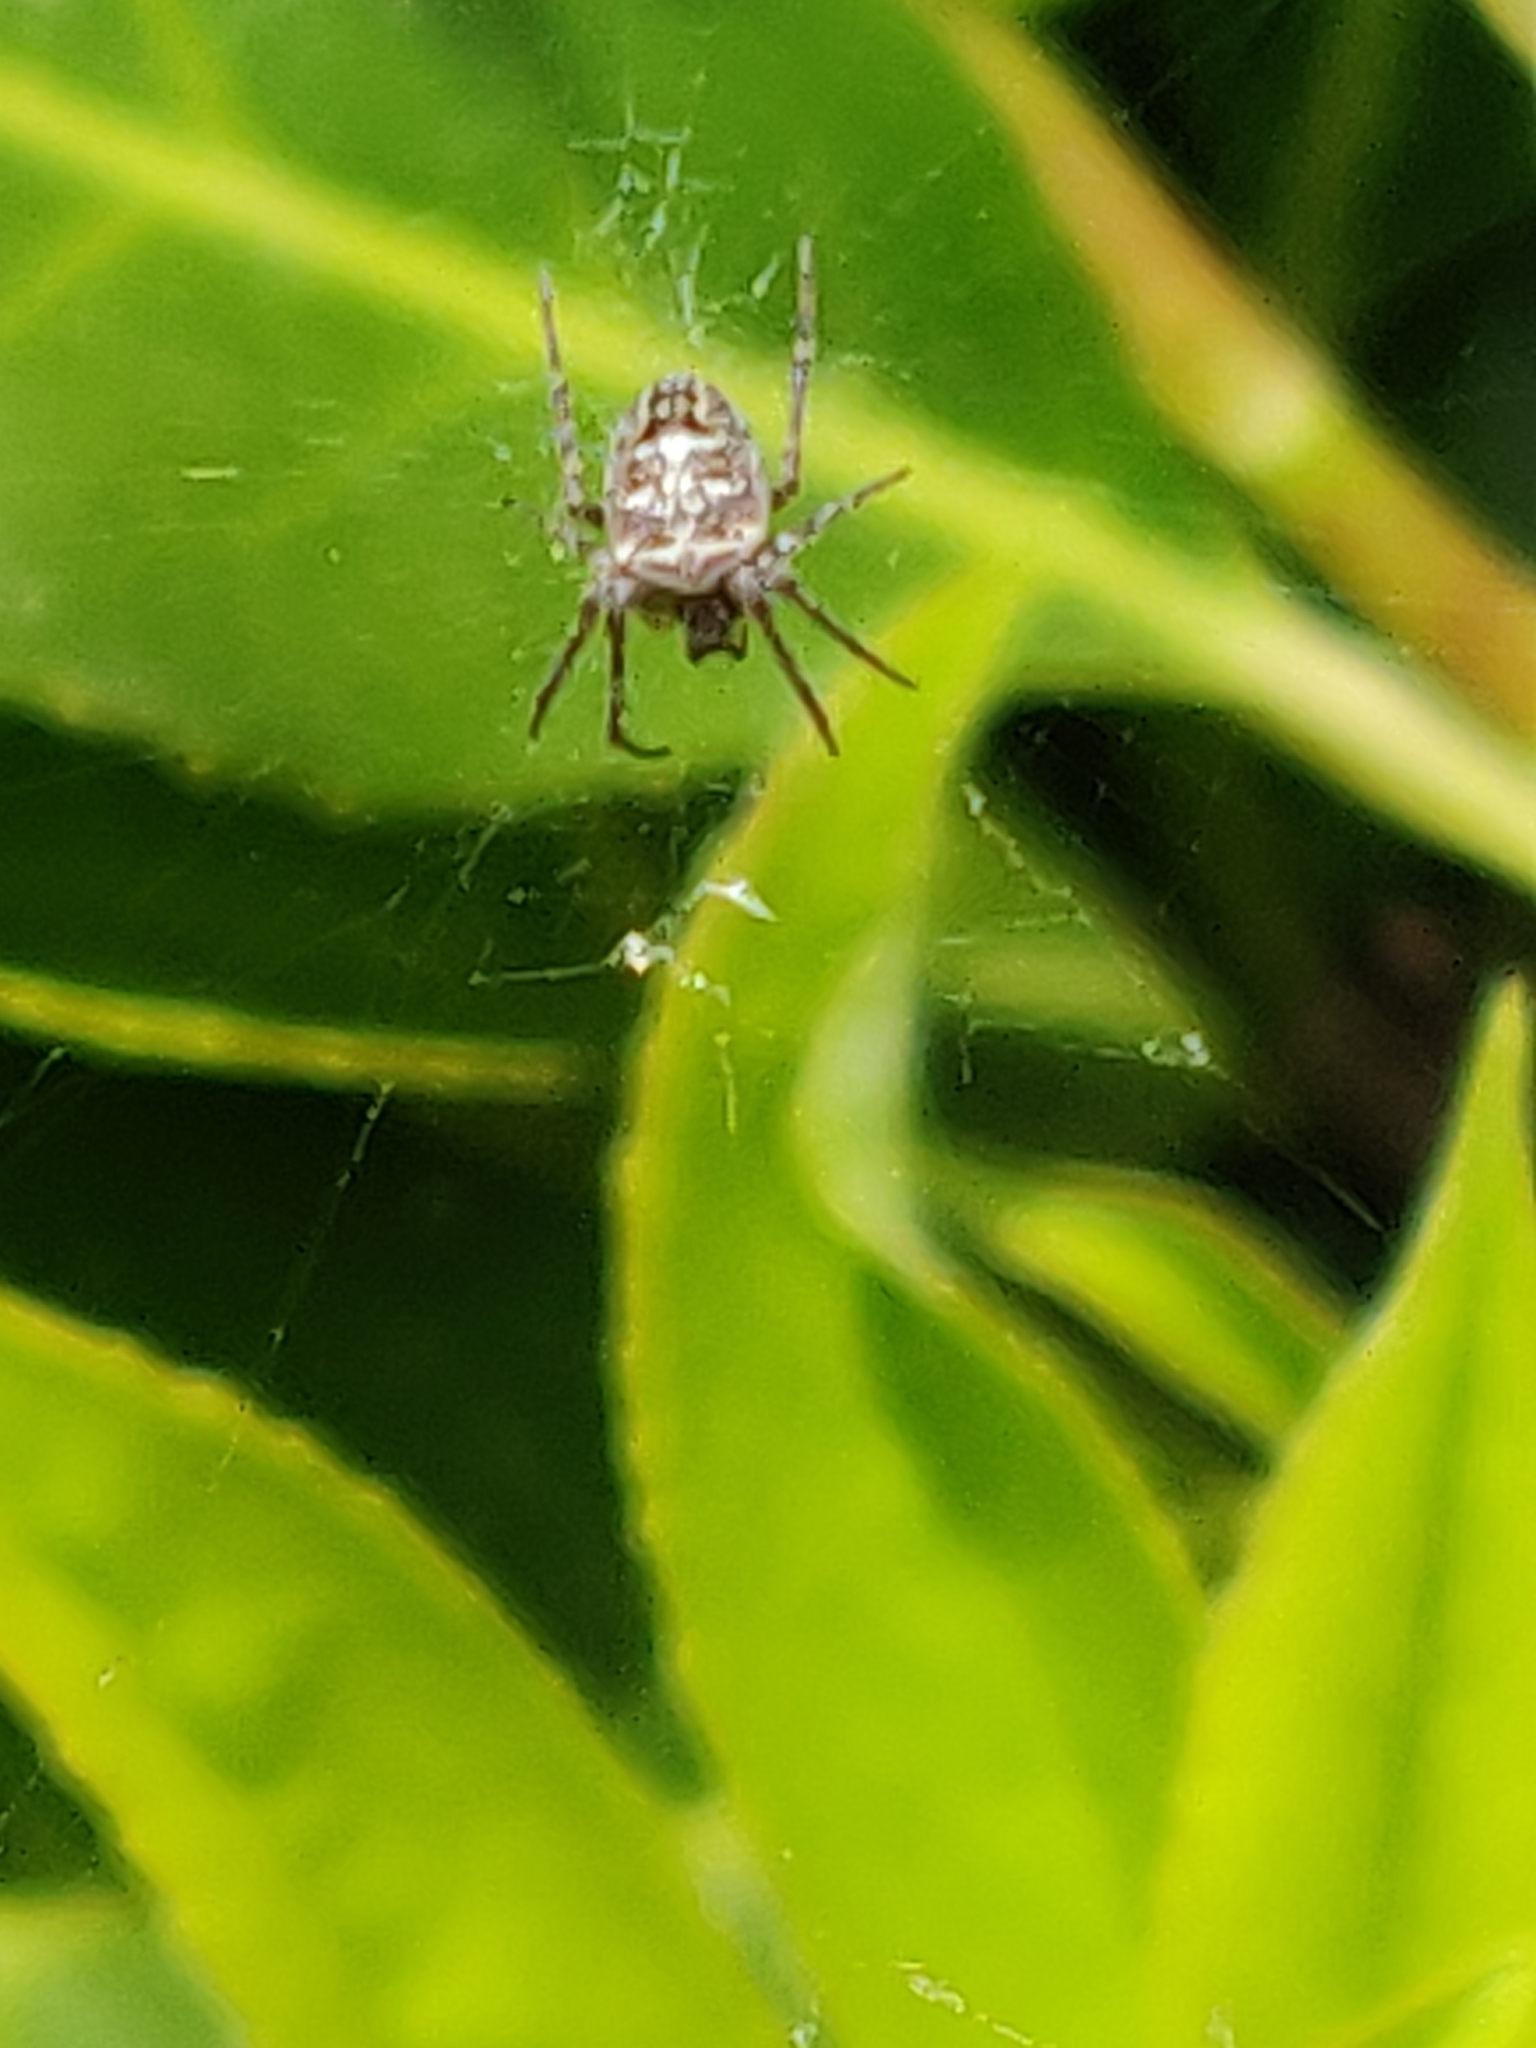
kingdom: Animalia
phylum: Arthropoda
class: Arachnida
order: Araneae
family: Araneidae
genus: Zilla
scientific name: Zilla diodia
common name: Zilla diodia
